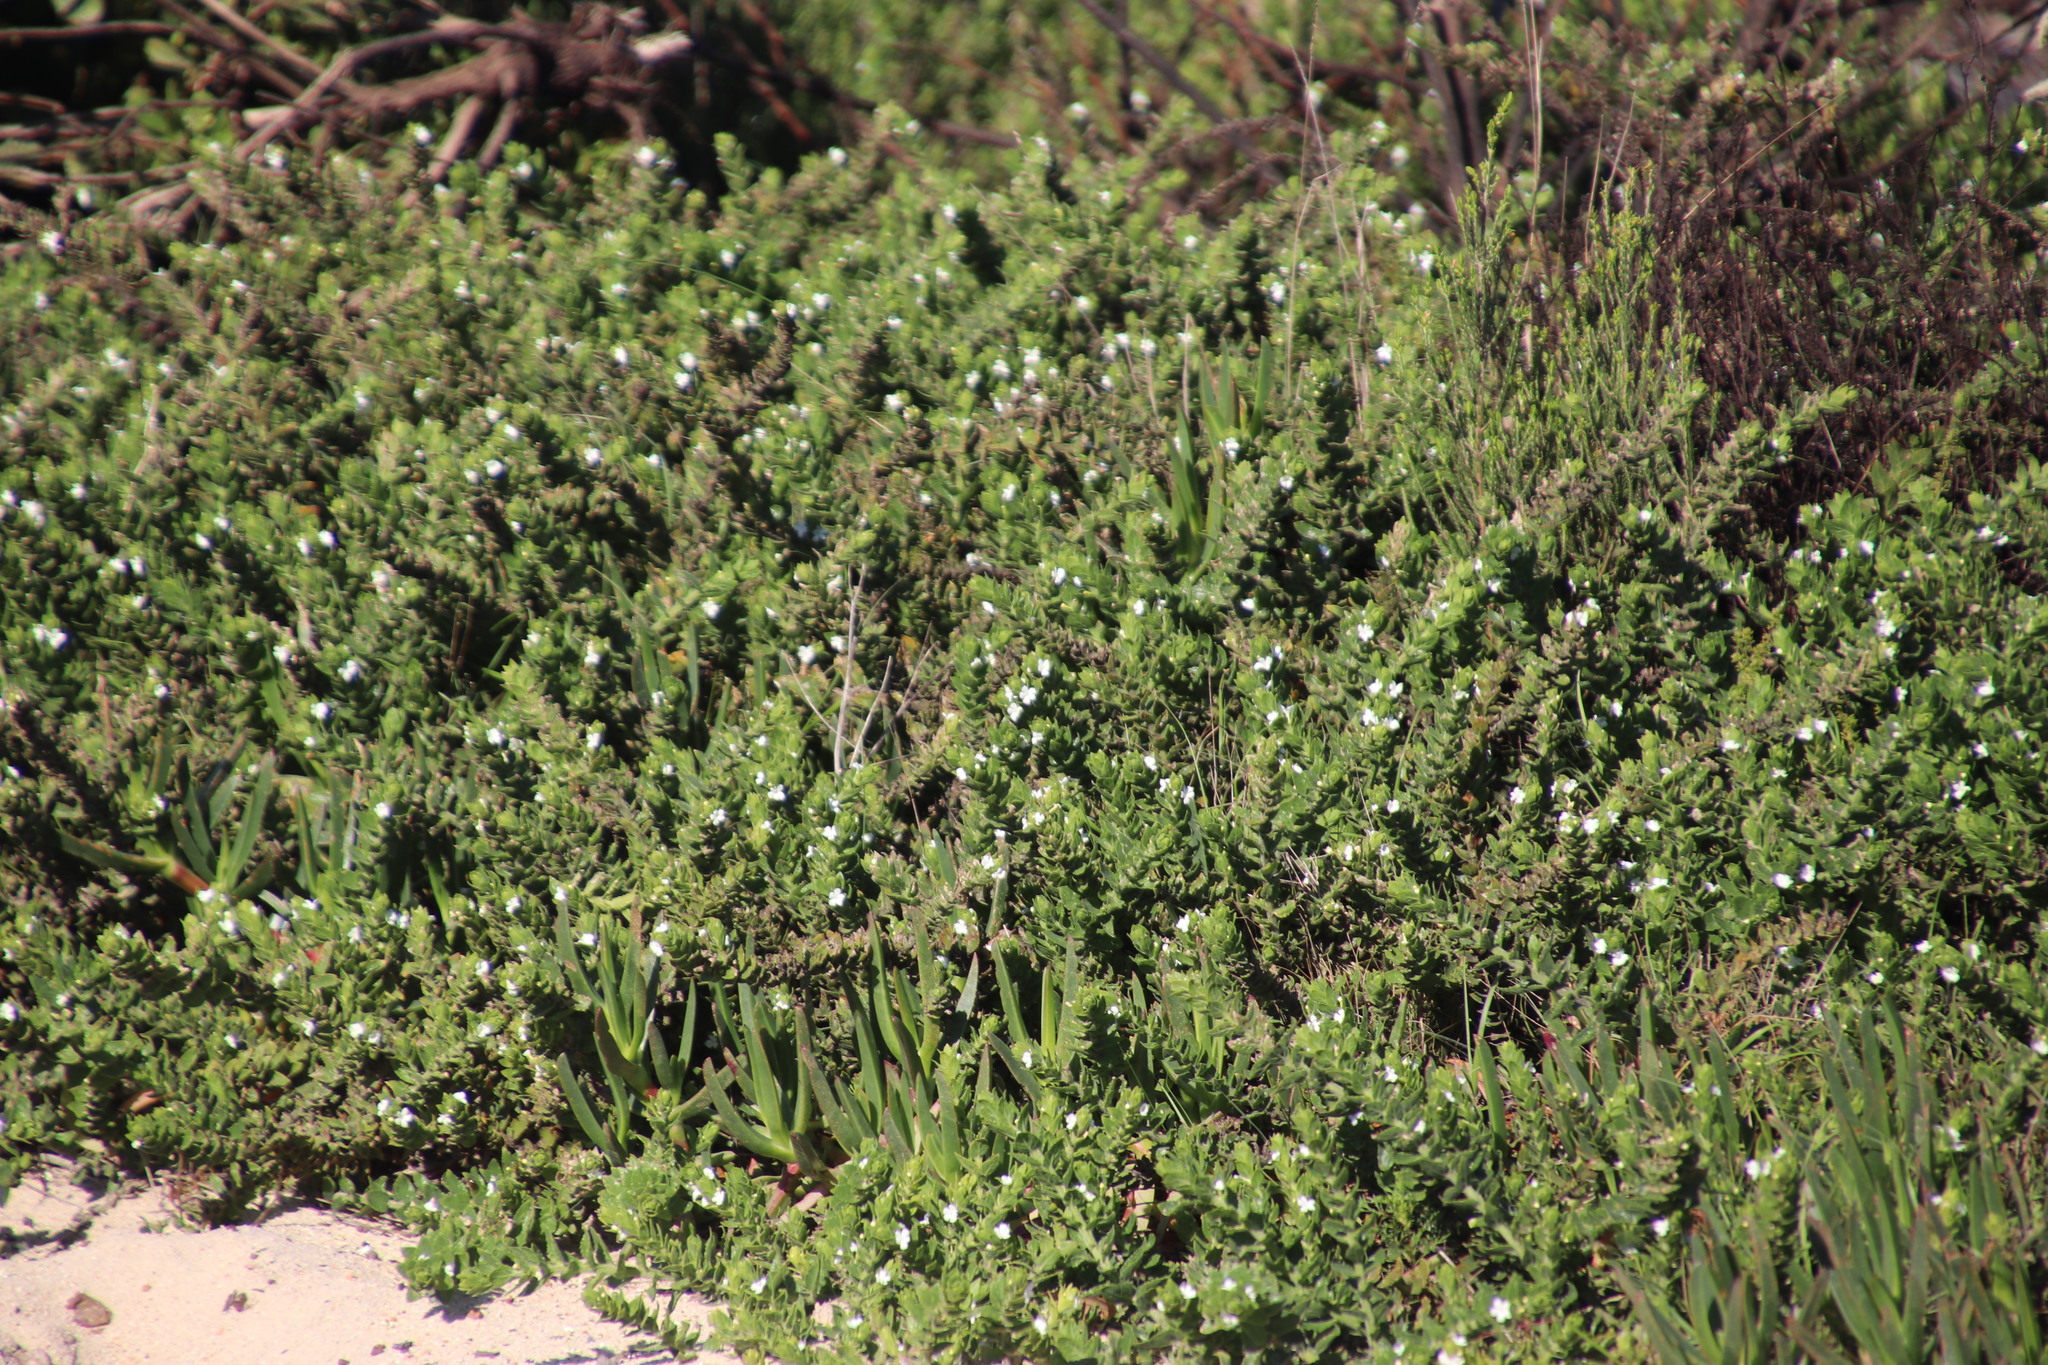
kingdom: Plantae
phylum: Tracheophyta
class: Magnoliopsida
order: Lamiales
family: Scrophulariaceae
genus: Oftia
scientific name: Oftia africana
